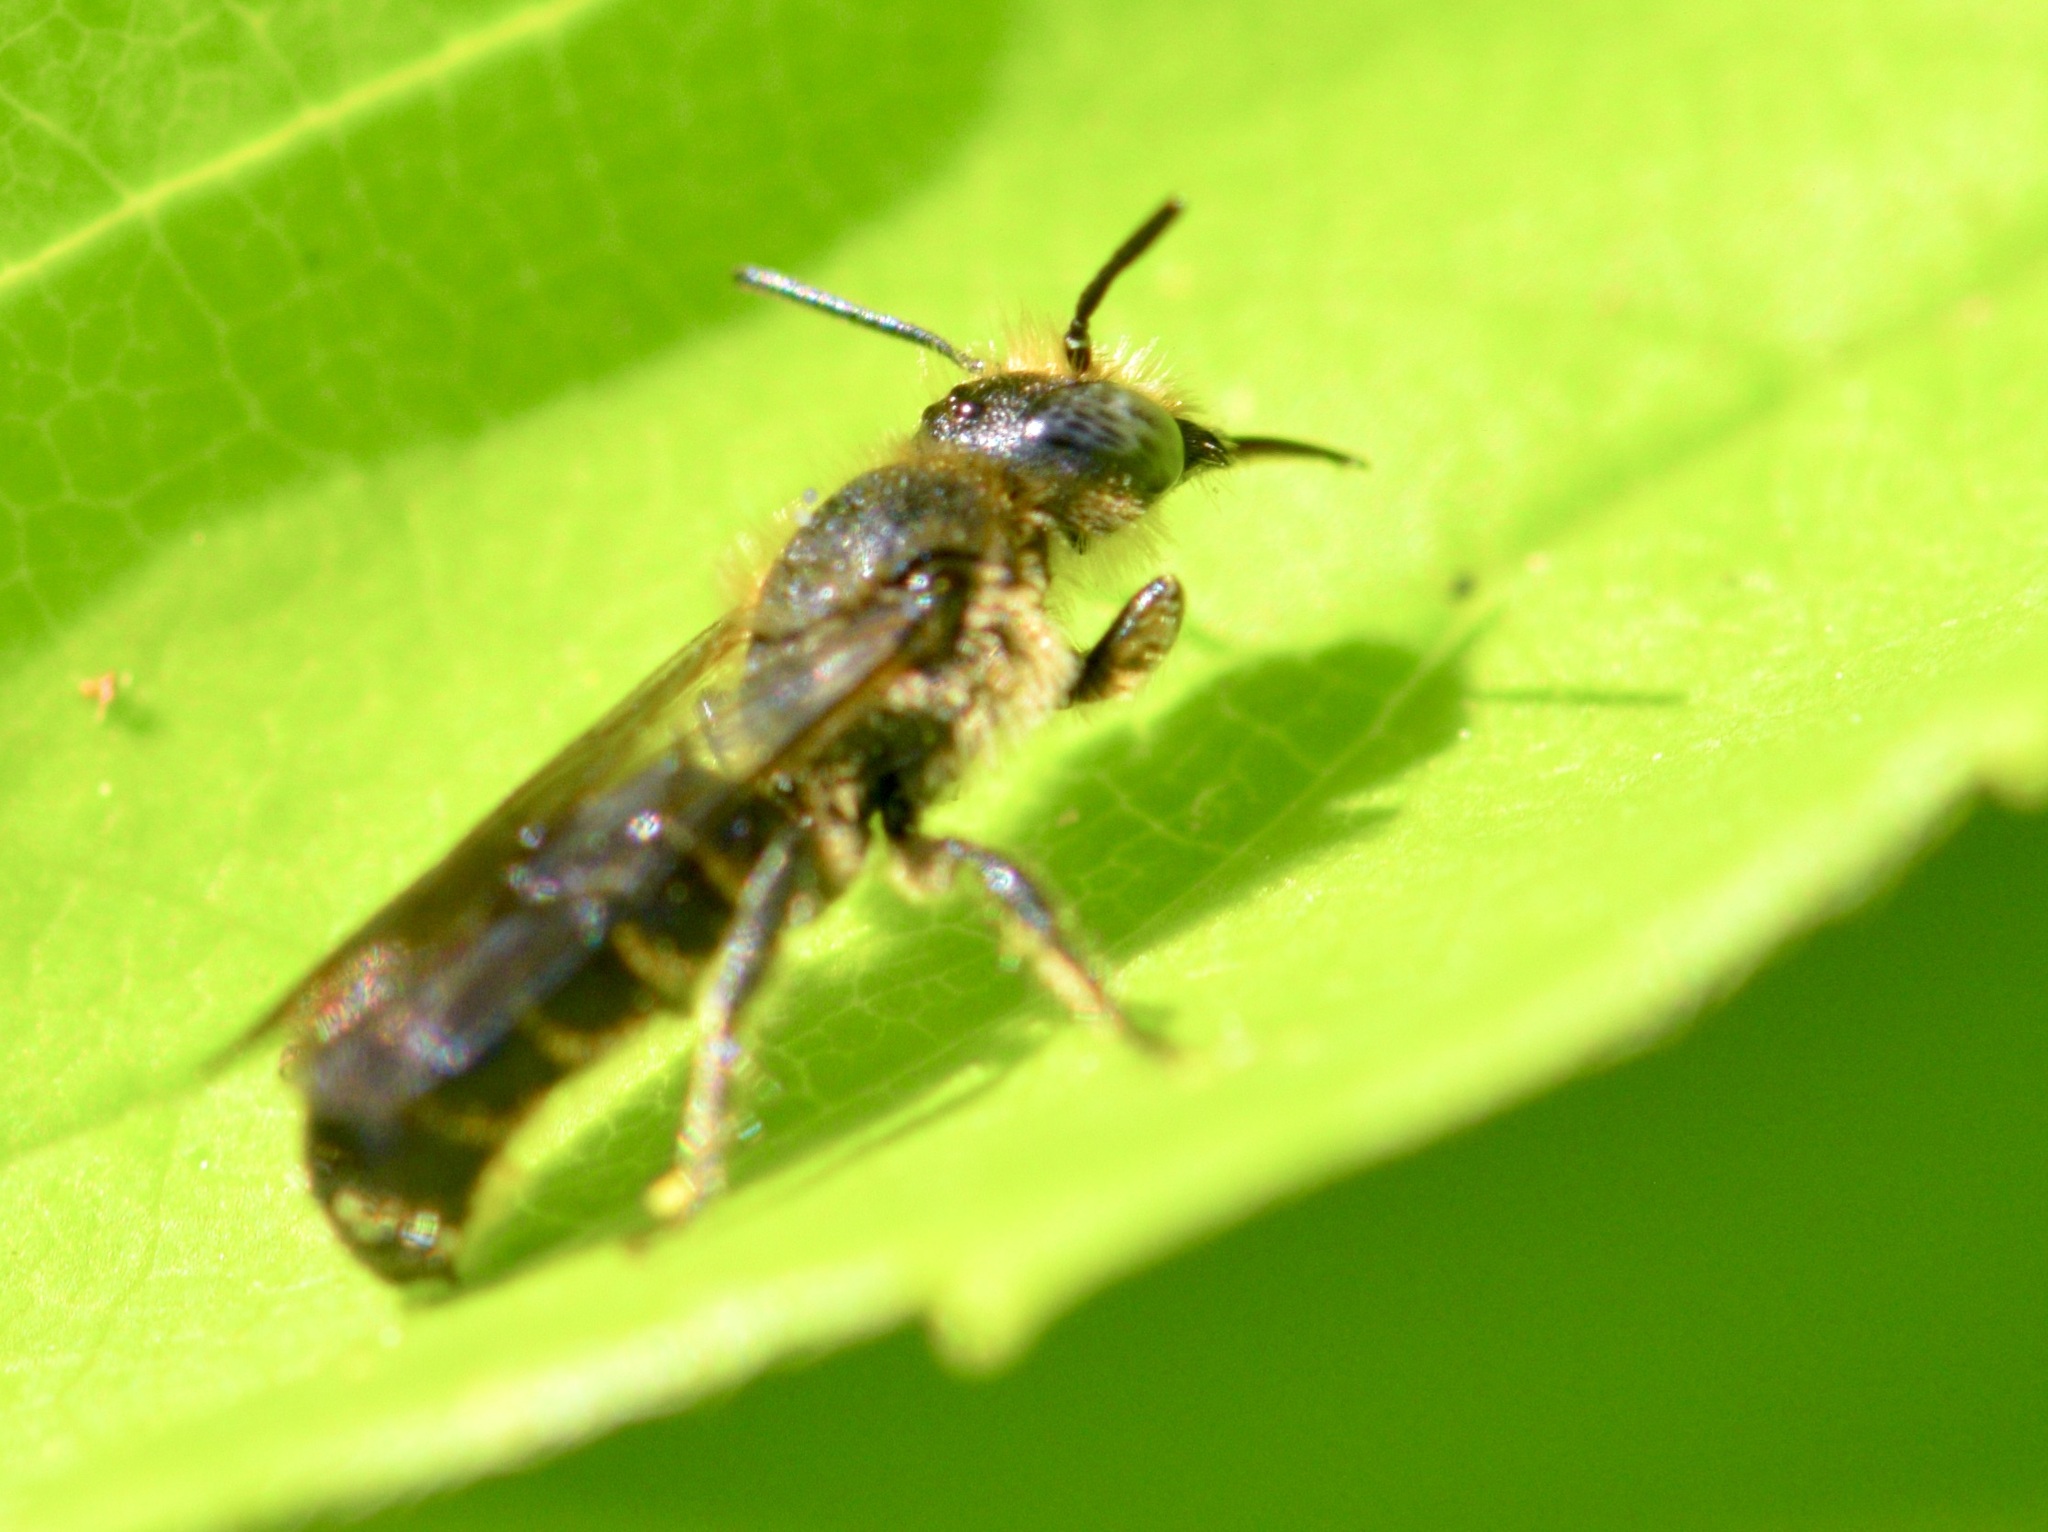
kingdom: Animalia
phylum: Arthropoda
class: Insecta
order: Hymenoptera
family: Megachilidae
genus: Chelostoma
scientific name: Chelostoma rapunculi
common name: Rampion scissor bee
